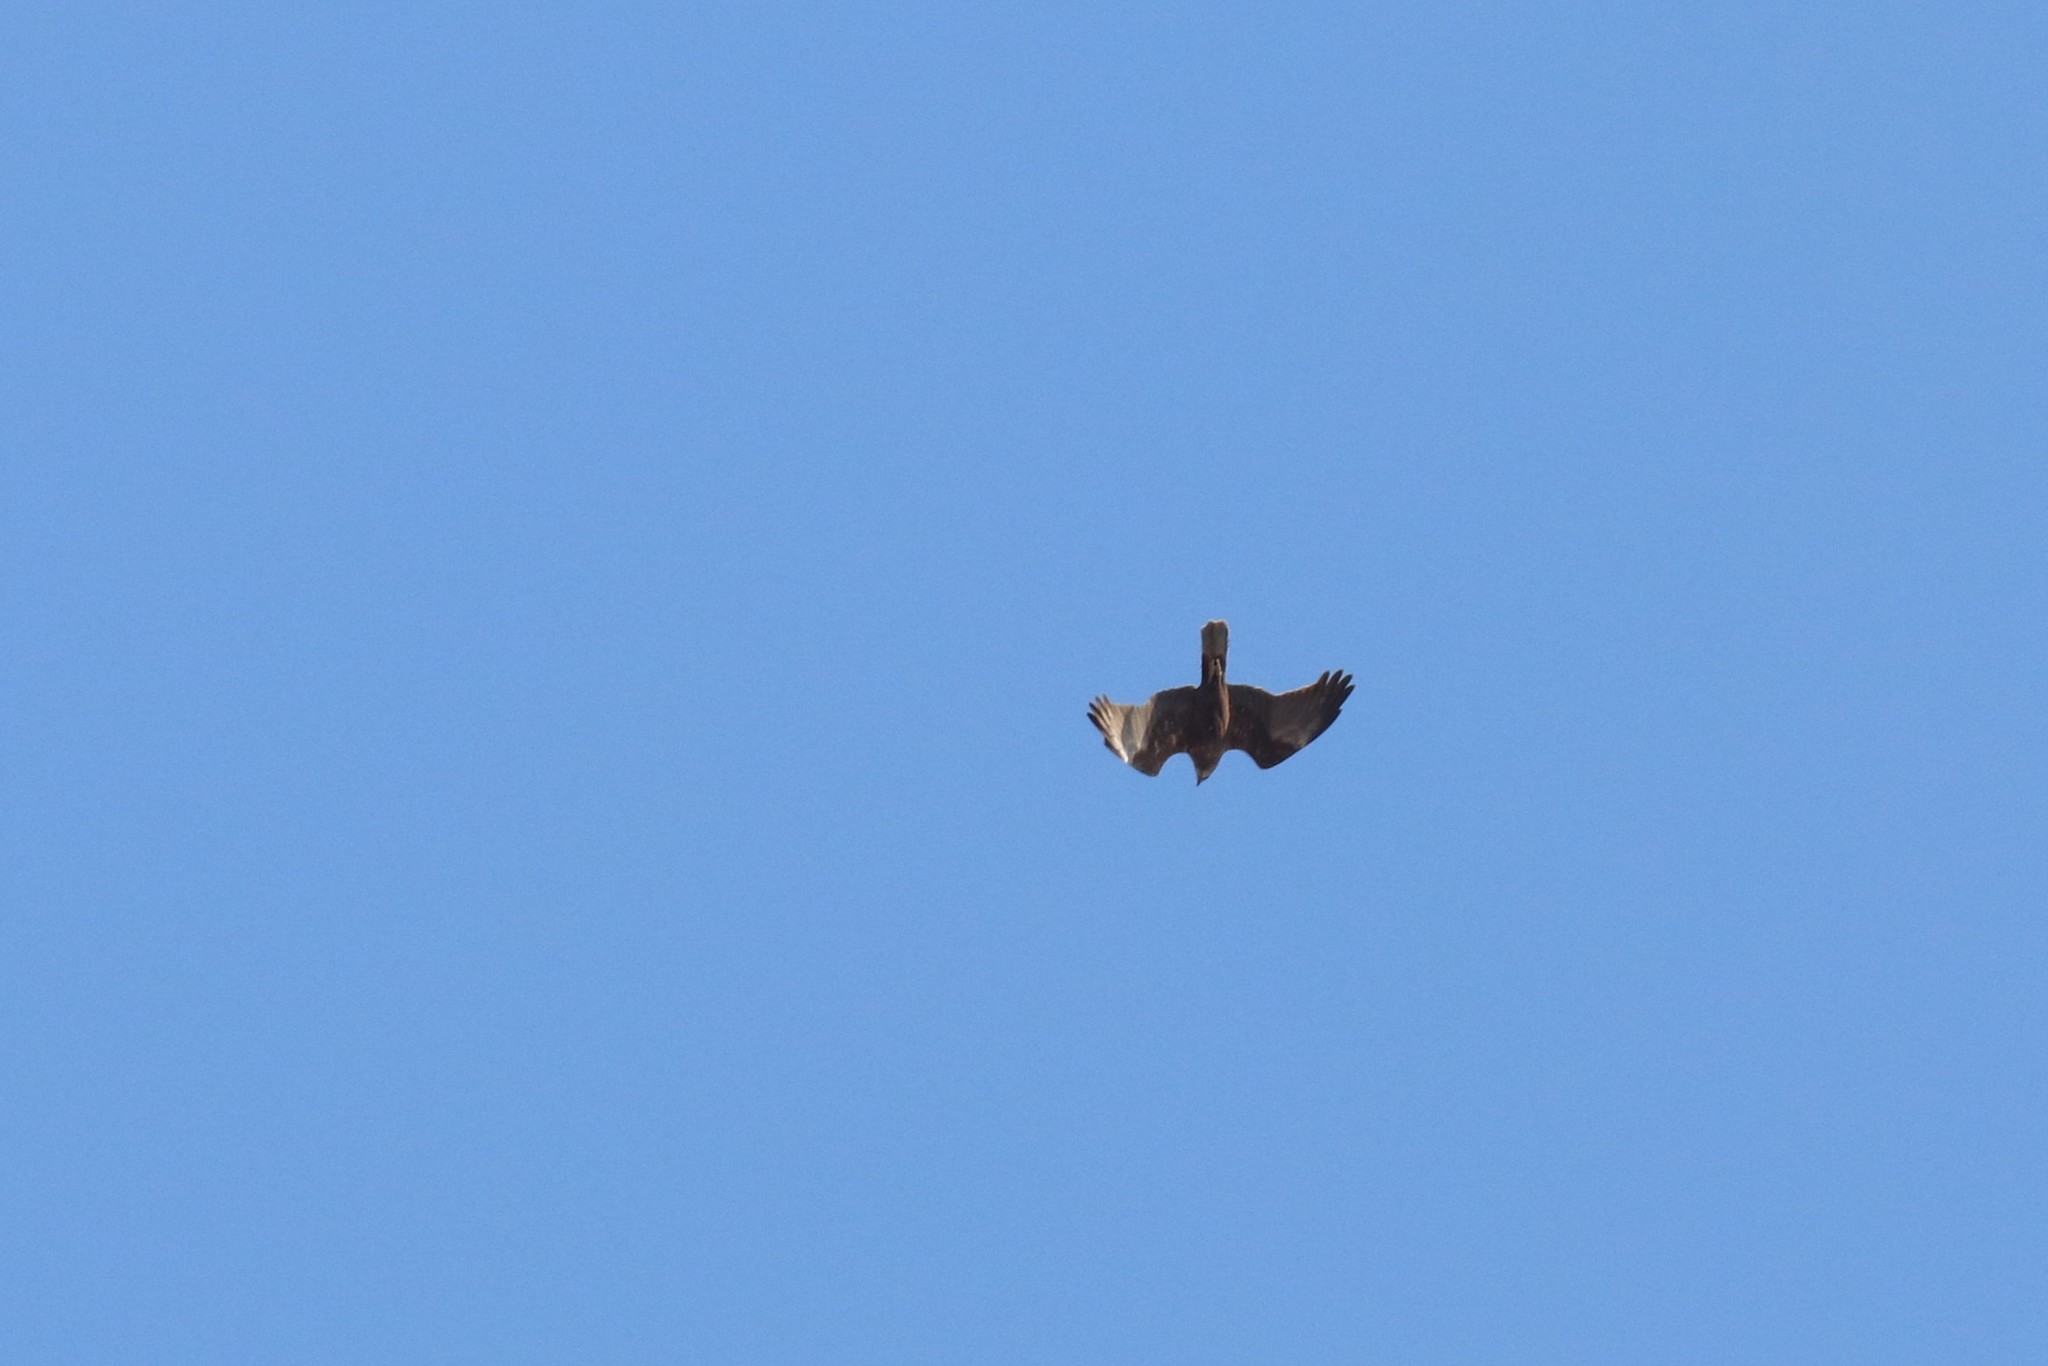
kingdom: Animalia
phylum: Chordata
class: Aves
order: Accipitriformes
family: Accipitridae
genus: Circus
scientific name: Circus aeruginosus
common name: Western marsh harrier
